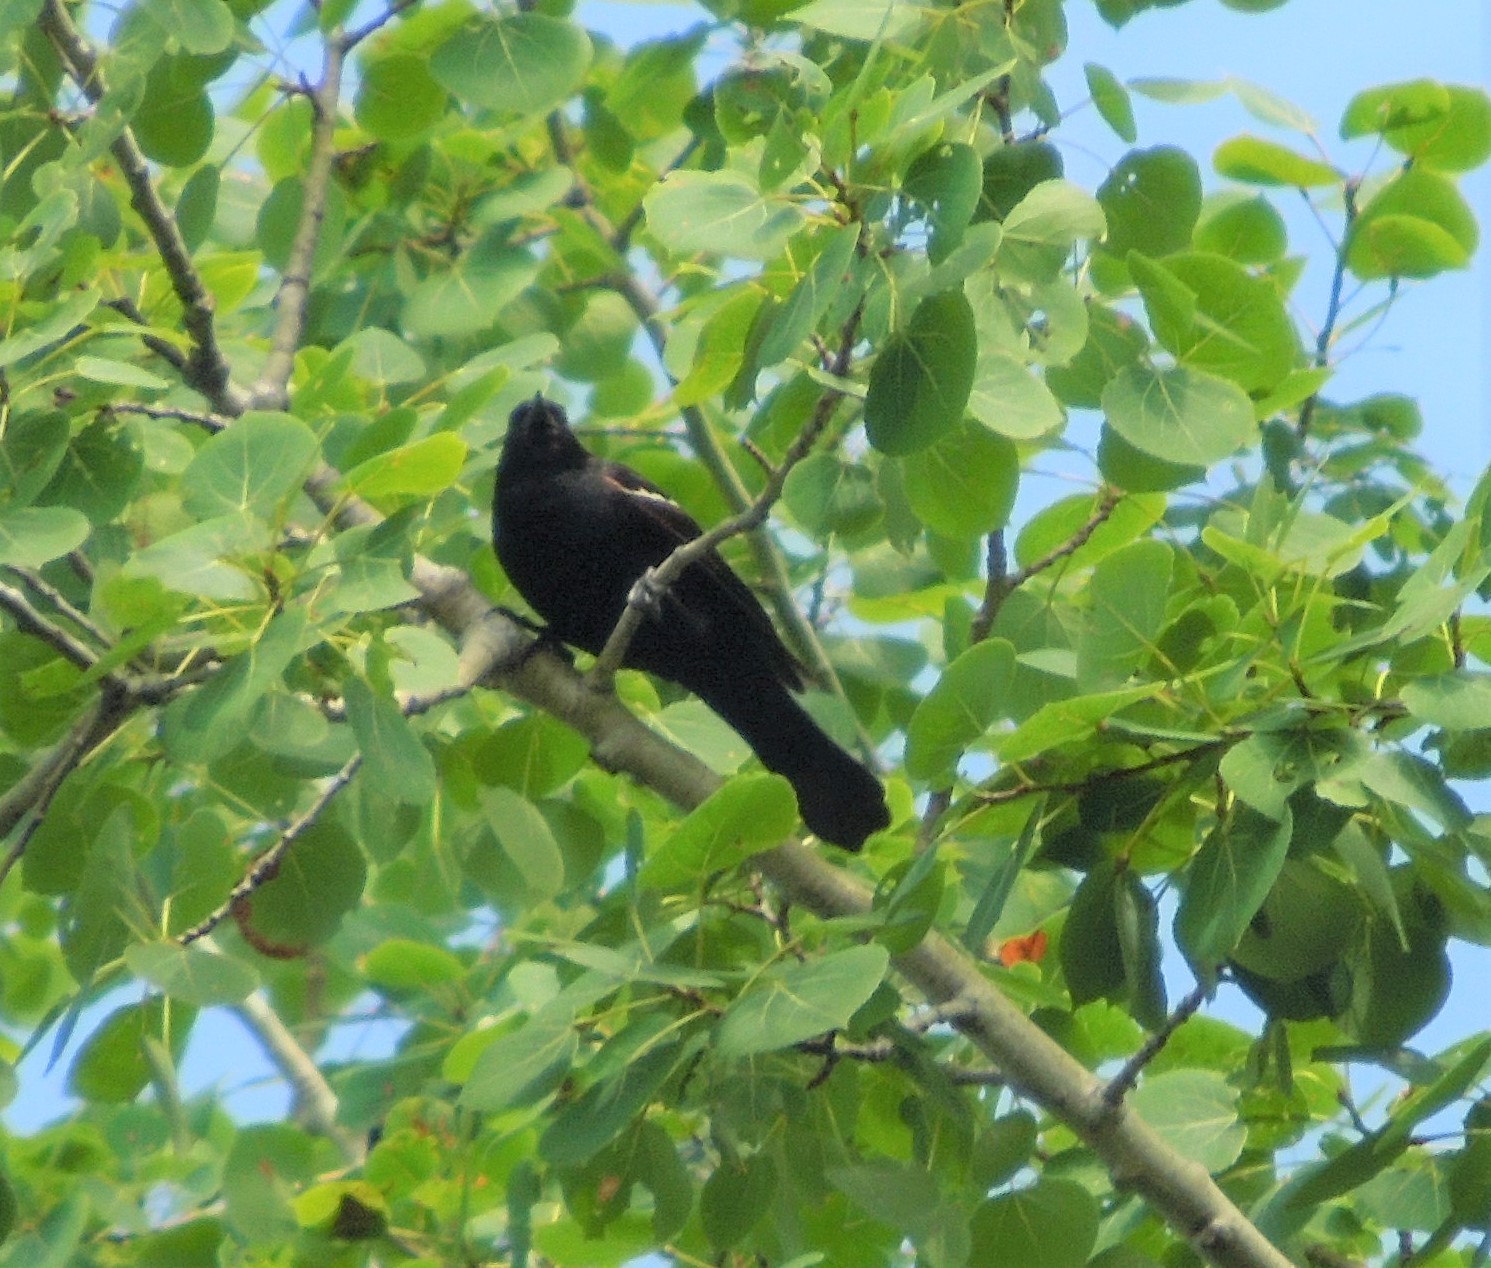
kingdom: Animalia
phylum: Chordata
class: Aves
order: Passeriformes
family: Icteridae
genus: Agelaius
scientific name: Agelaius phoeniceus
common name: Red-winged blackbird
